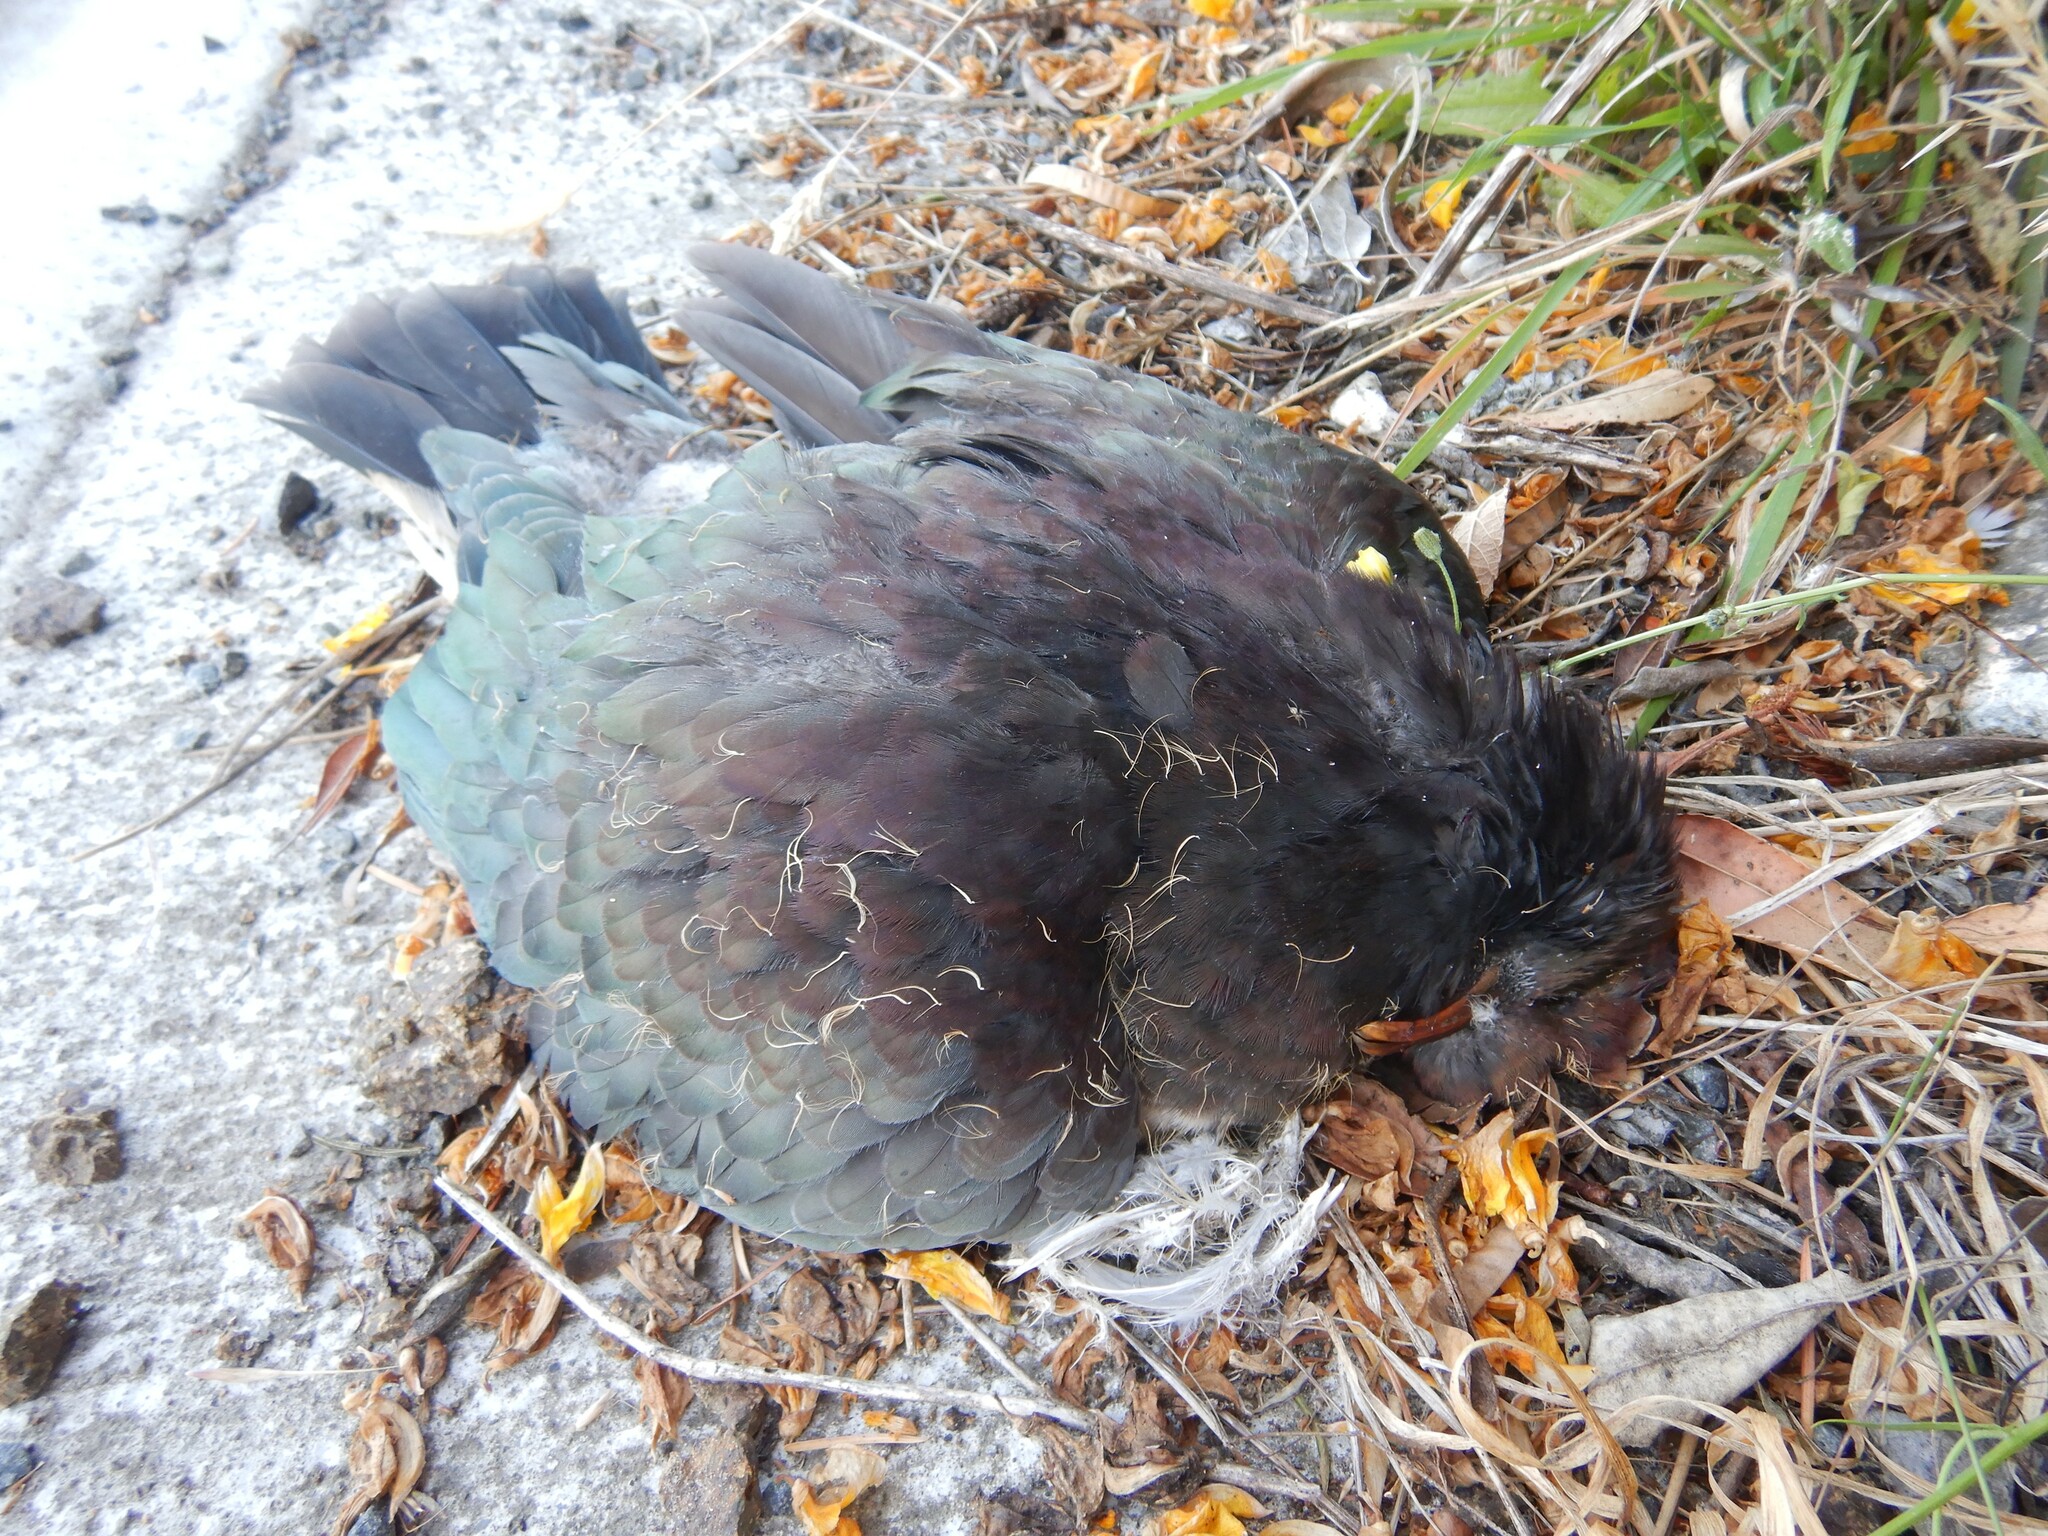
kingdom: Animalia
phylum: Chordata
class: Aves
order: Columbiformes
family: Columbidae
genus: Hemiphaga
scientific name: Hemiphaga novaeseelandiae
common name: New zealand pigeon
